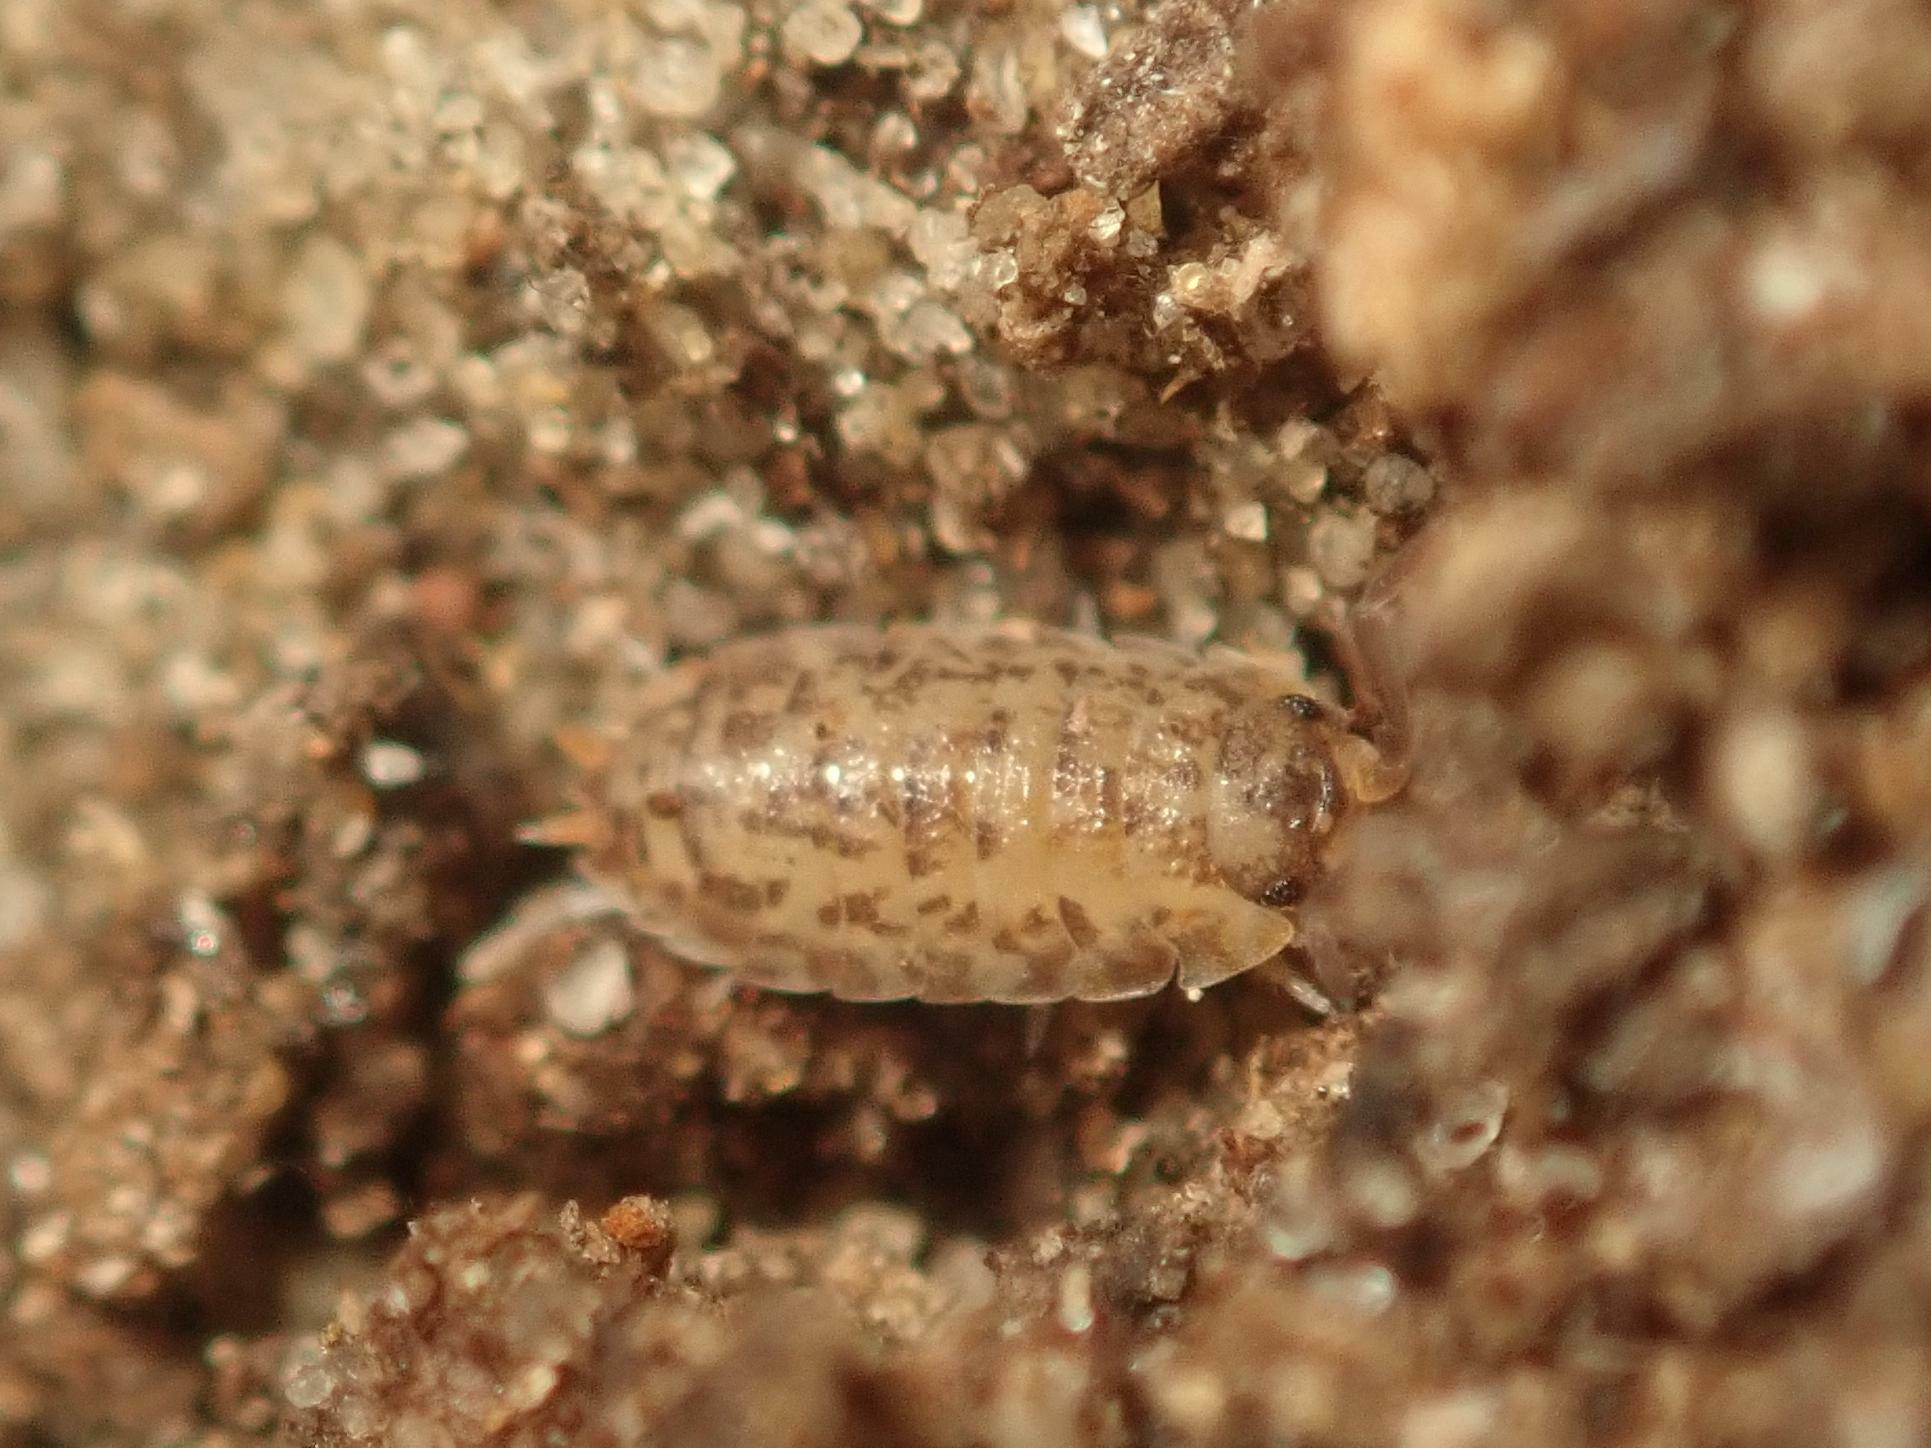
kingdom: Animalia
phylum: Arthropoda
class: Malacostraca
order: Isopoda
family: Porcellionidae
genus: Porcellio
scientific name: Porcellio scaber
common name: Common rough woodlouse
